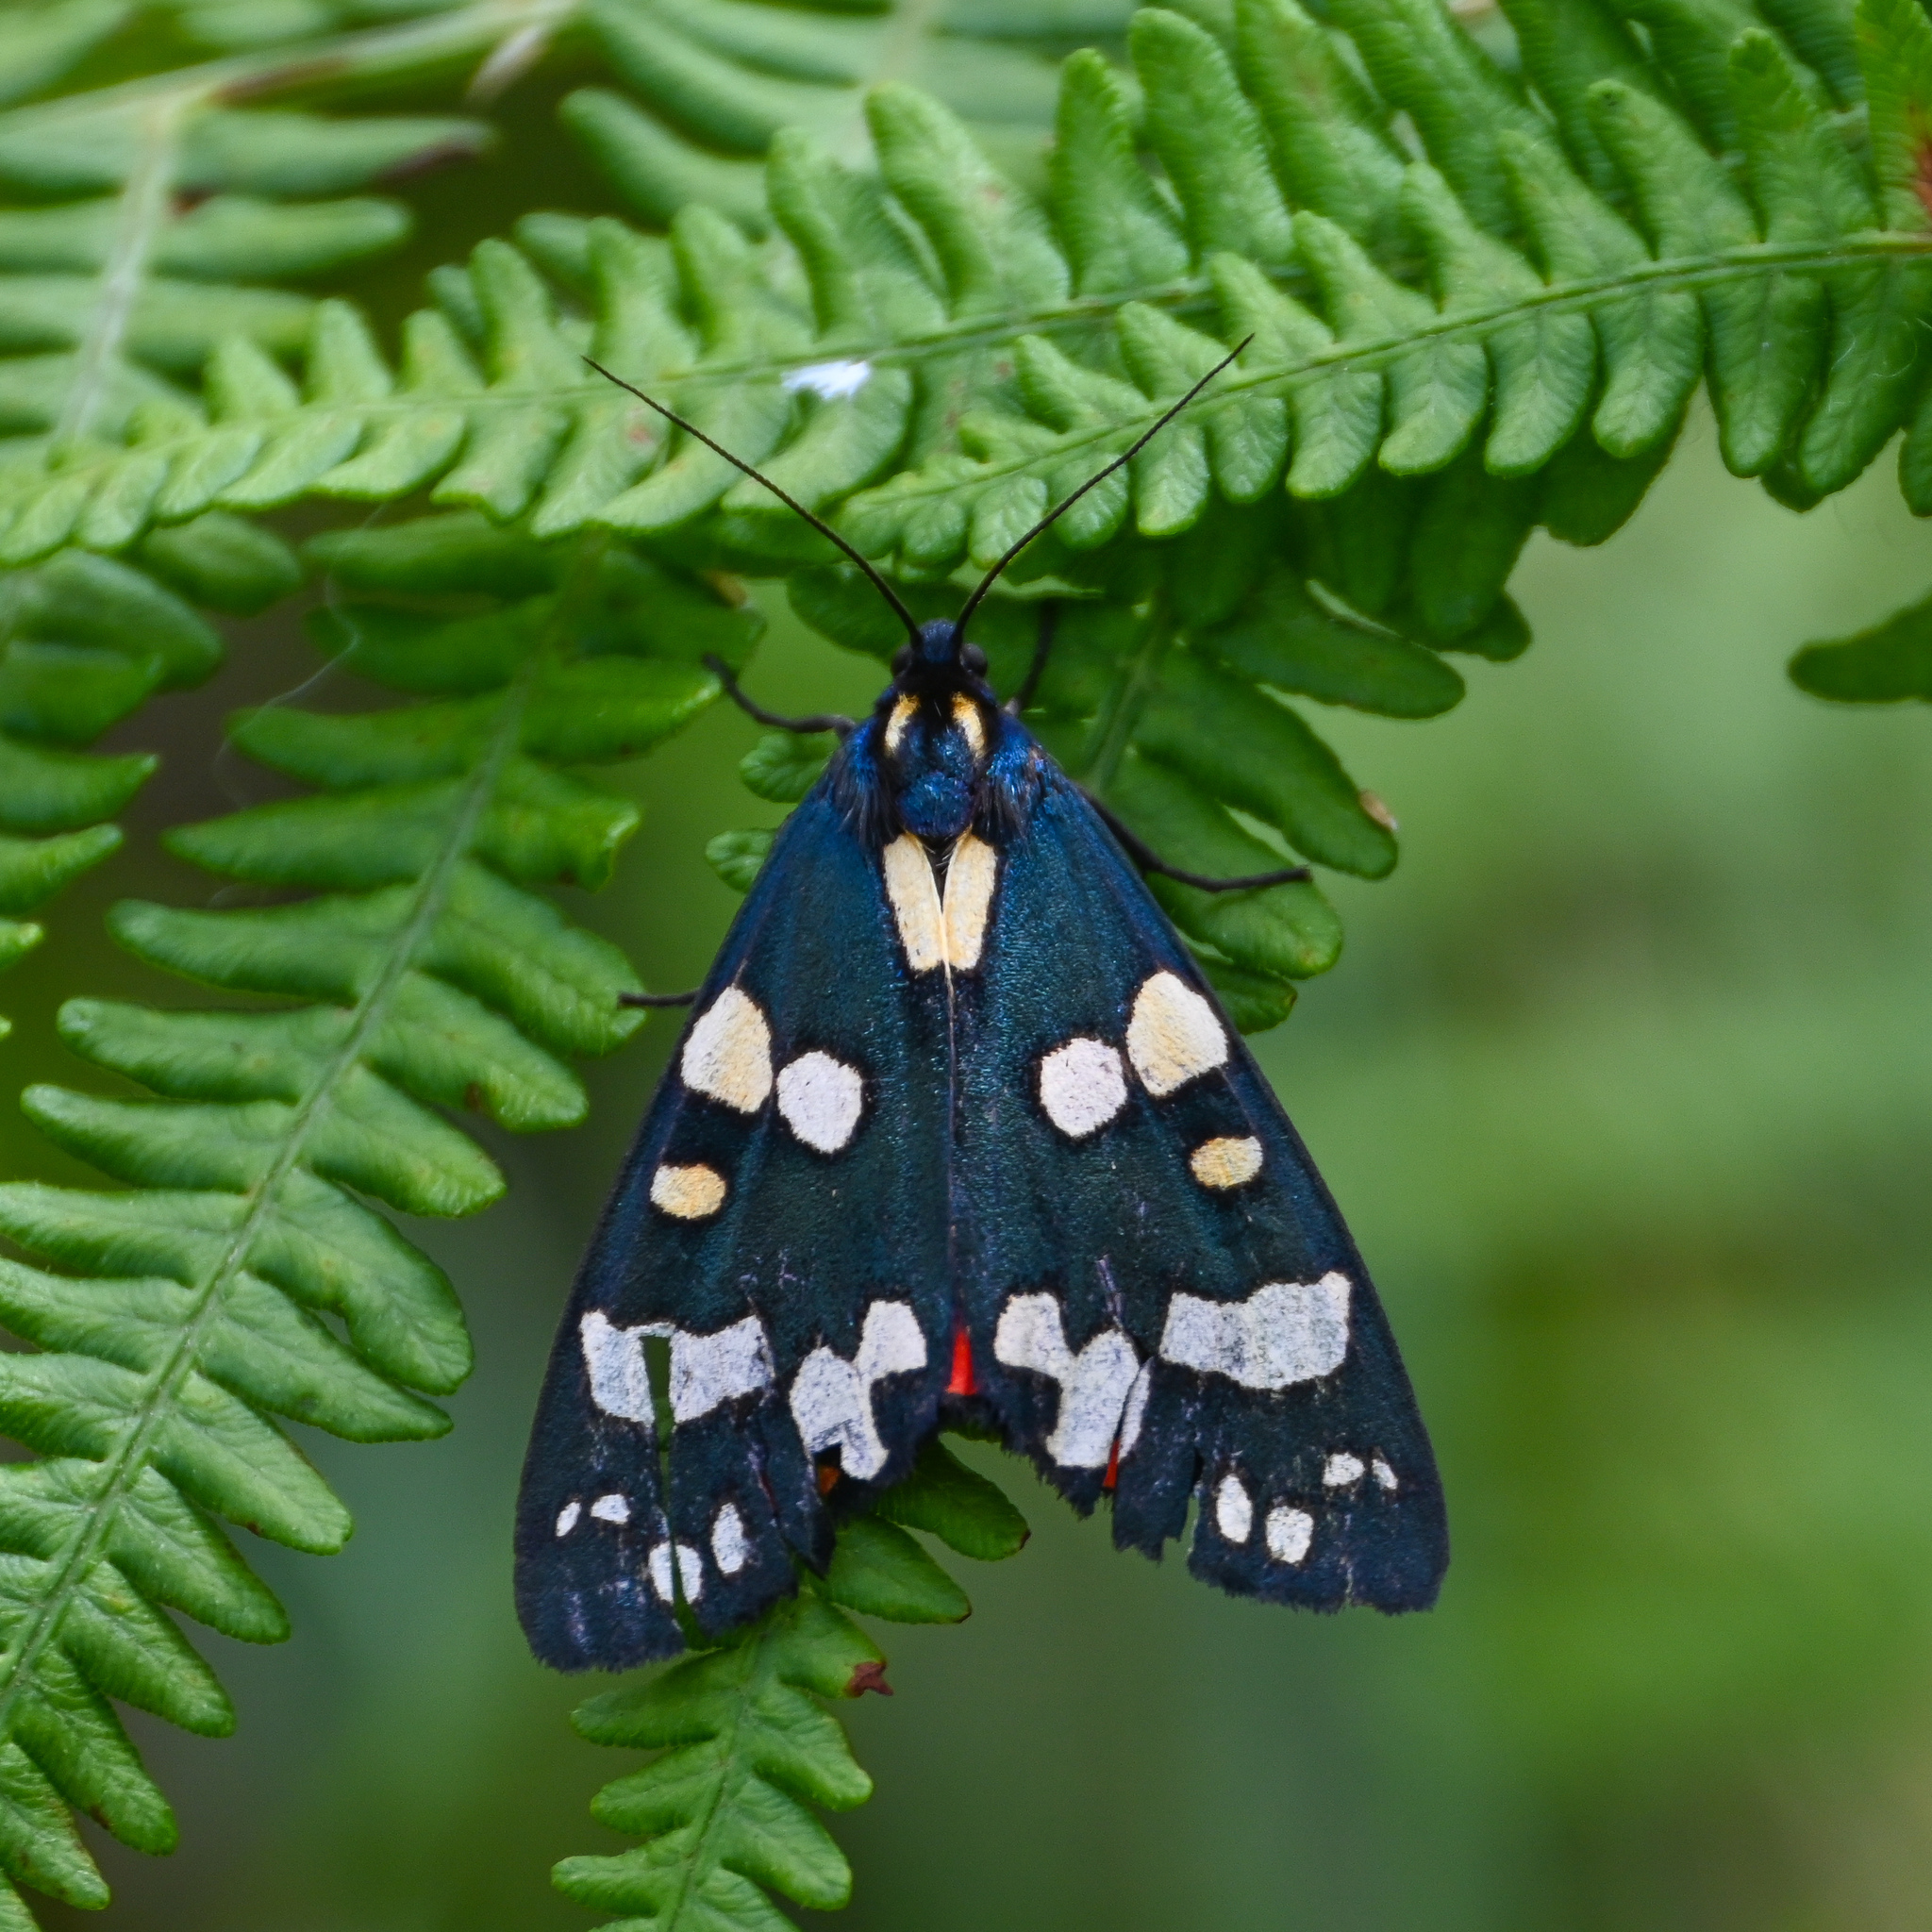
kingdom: Animalia
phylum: Arthropoda
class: Insecta
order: Lepidoptera
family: Erebidae
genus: Callimorpha
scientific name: Callimorpha dominula
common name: Scarlet tiger
